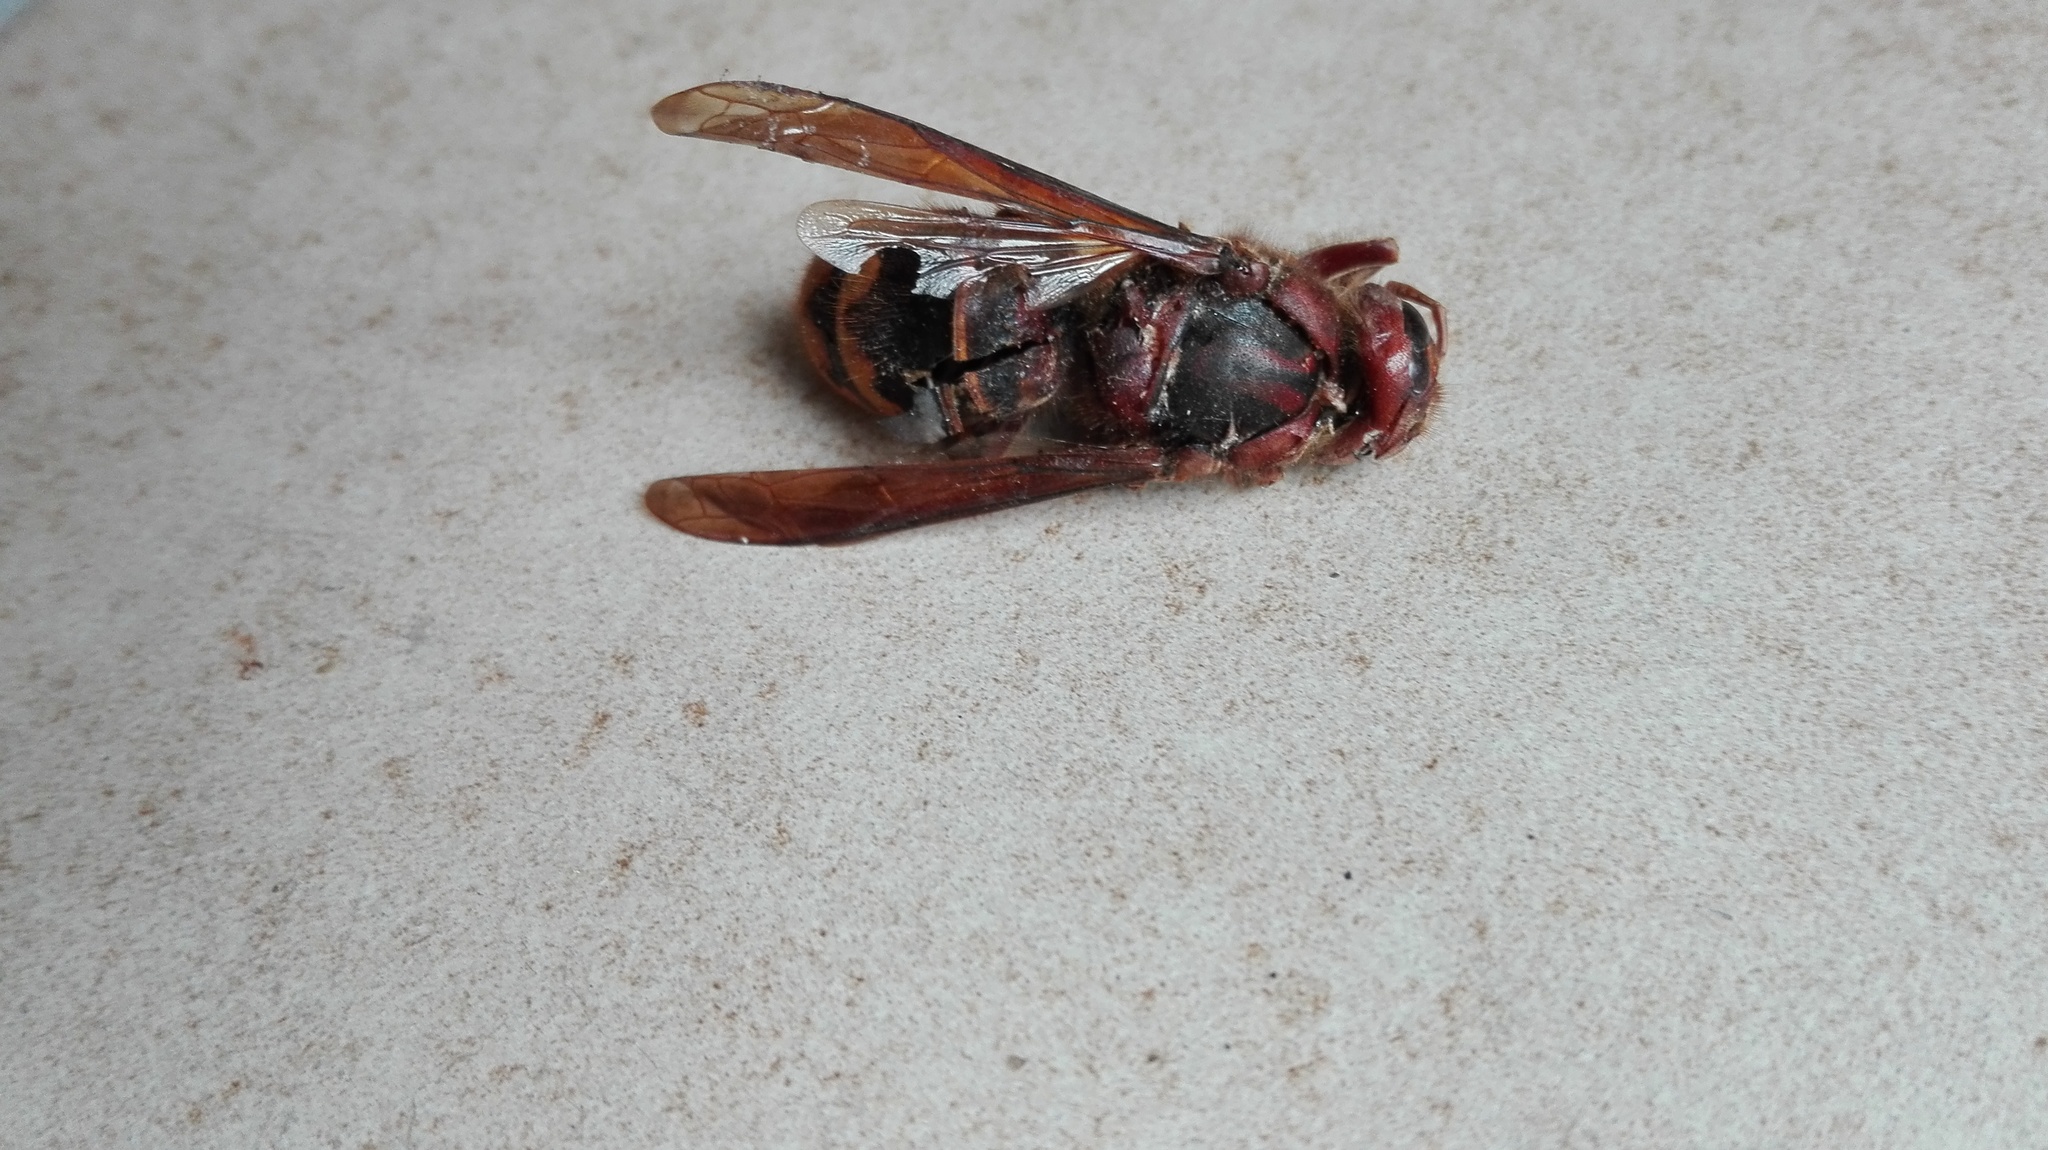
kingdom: Animalia
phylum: Arthropoda
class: Insecta
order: Hymenoptera
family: Vespidae
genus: Vespa
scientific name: Vespa crabro
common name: Hornet
